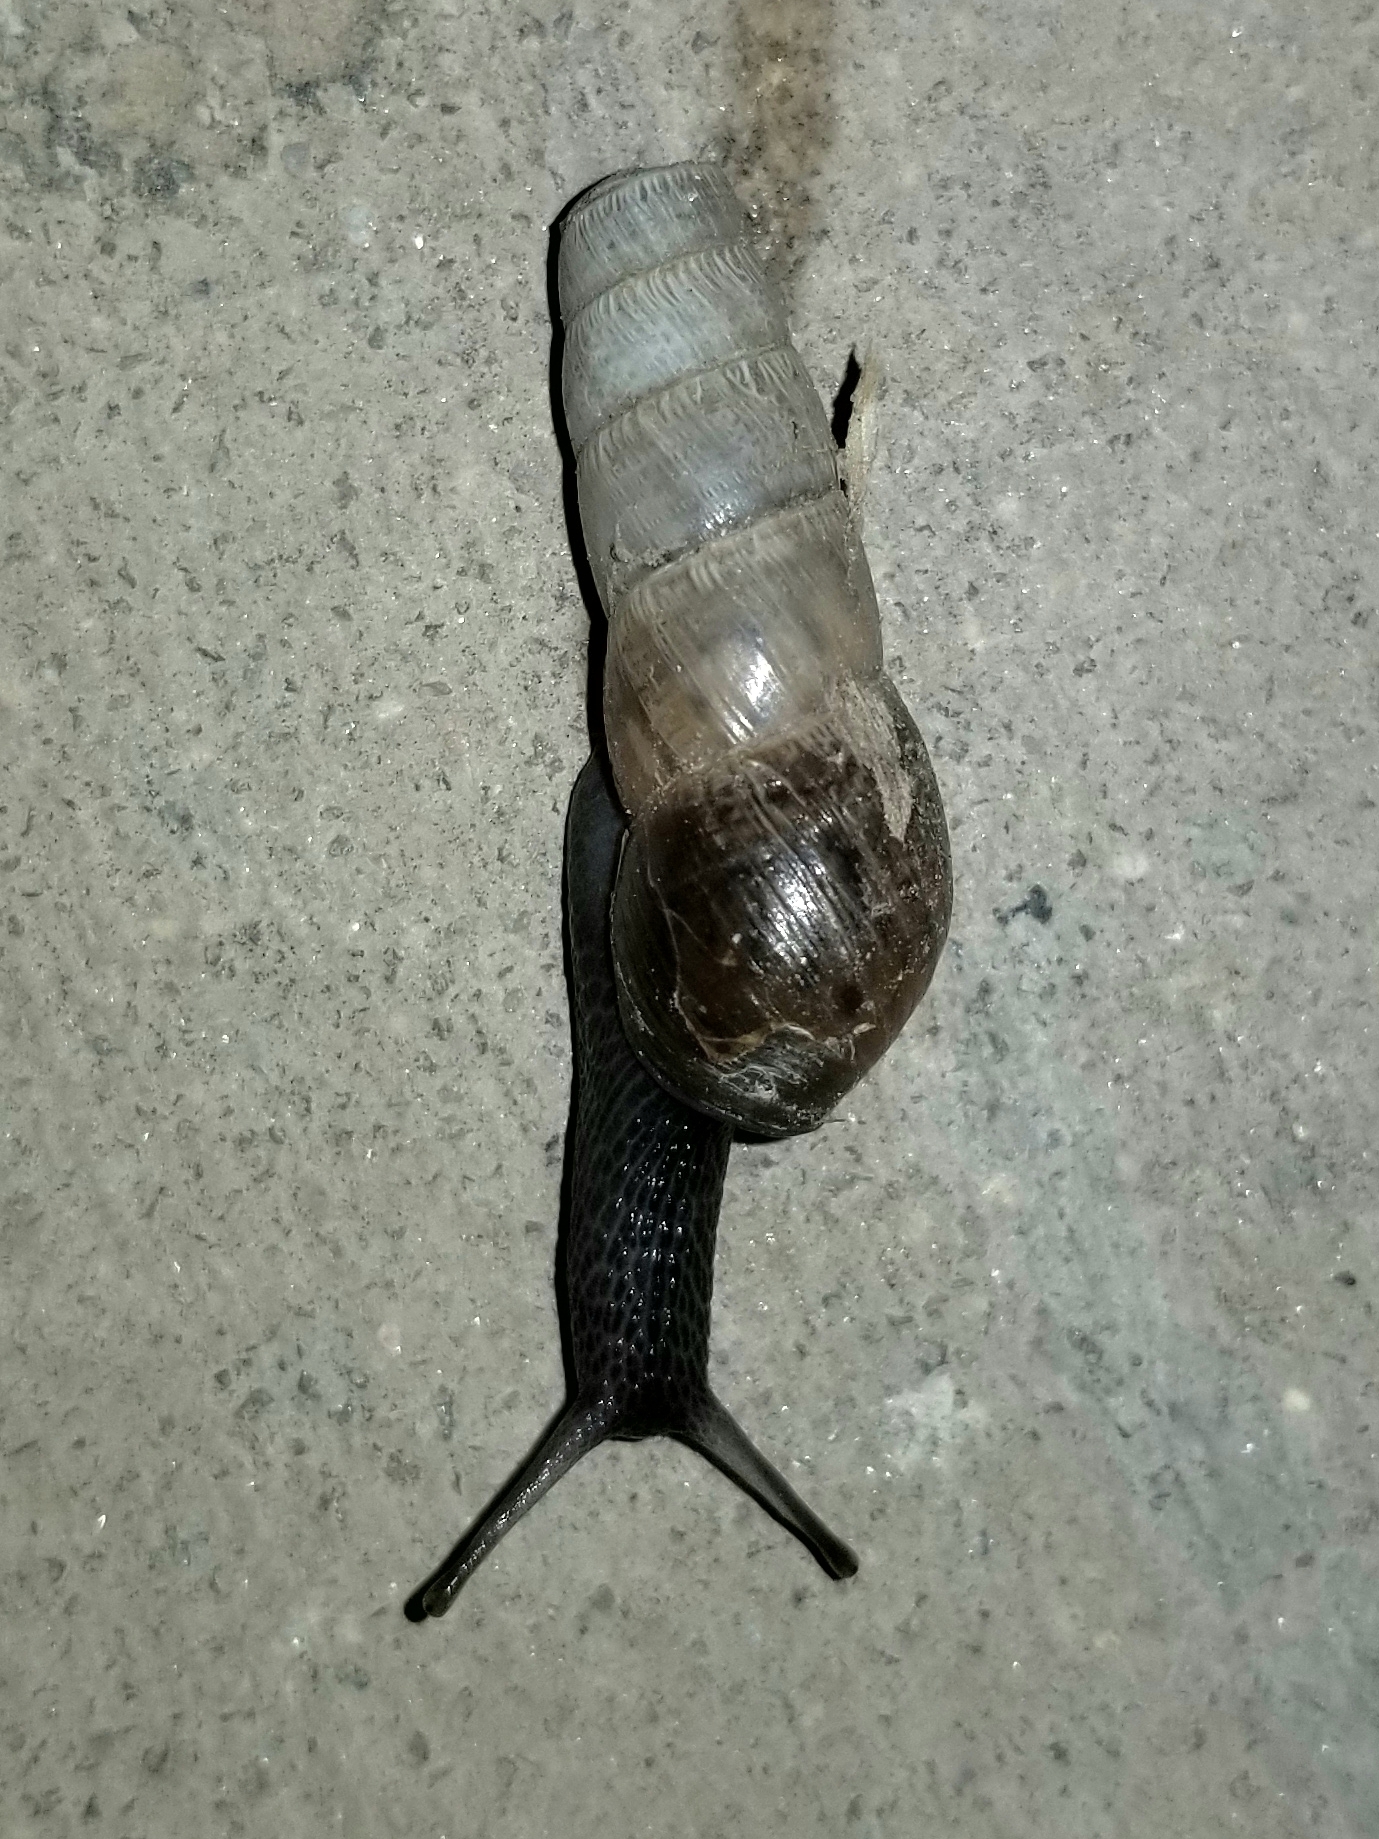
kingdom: Animalia
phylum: Mollusca
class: Gastropoda
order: Stylommatophora
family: Achatinidae
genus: Rumina
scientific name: Rumina decollata
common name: Decollate snail
